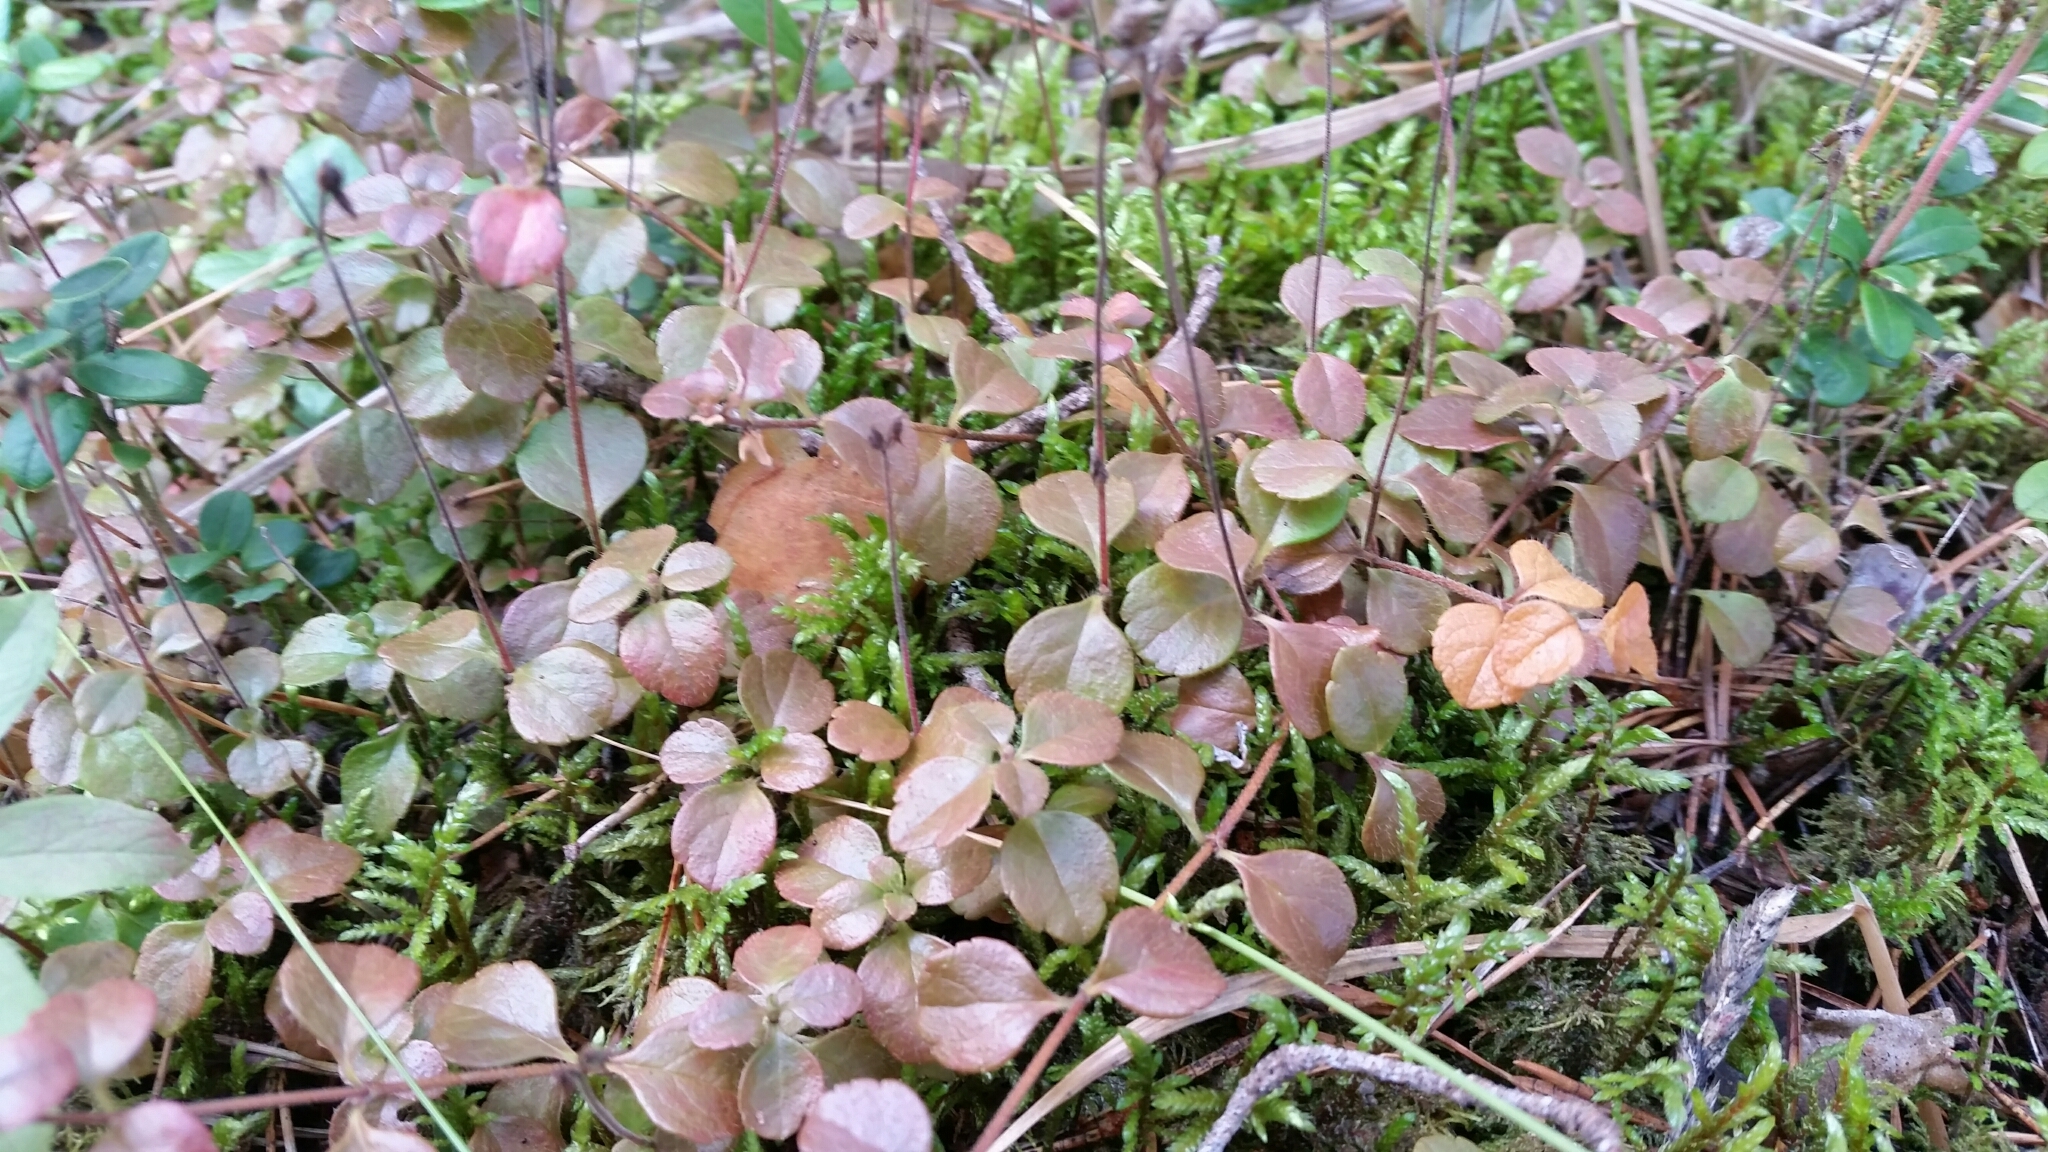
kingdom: Plantae
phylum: Tracheophyta
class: Magnoliopsida
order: Dipsacales
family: Caprifoliaceae
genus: Linnaea
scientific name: Linnaea borealis
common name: Twinflower
